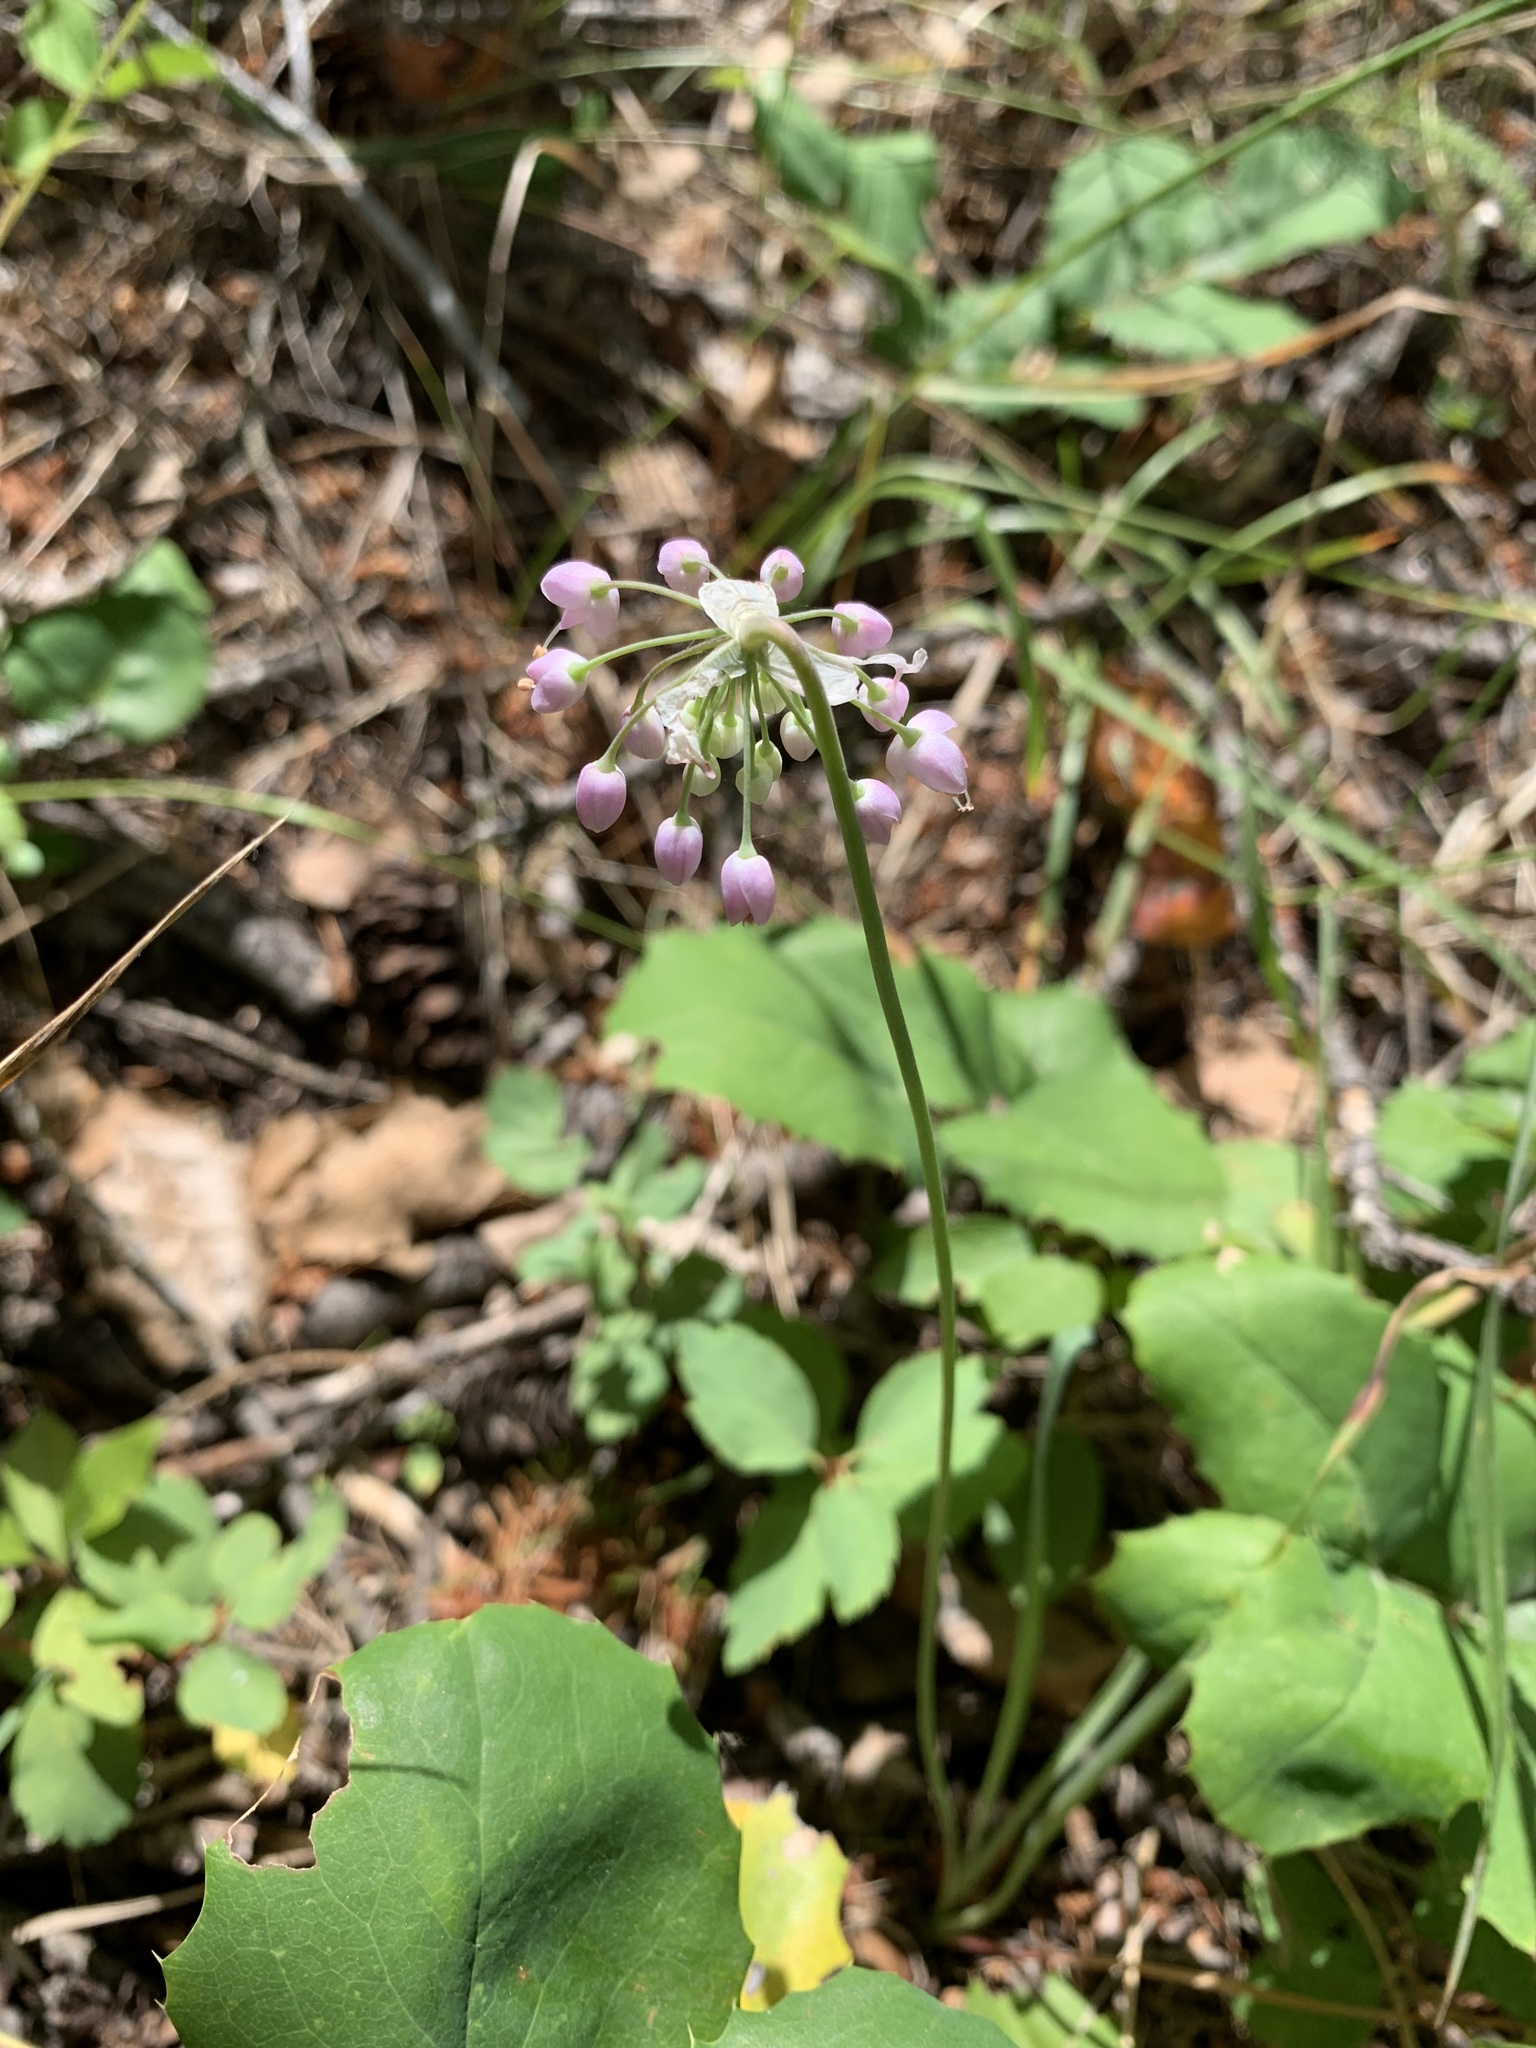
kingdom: Plantae
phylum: Tracheophyta
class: Liliopsida
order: Asparagales
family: Amaryllidaceae
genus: Allium
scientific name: Allium cernuum
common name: Nodding onion
